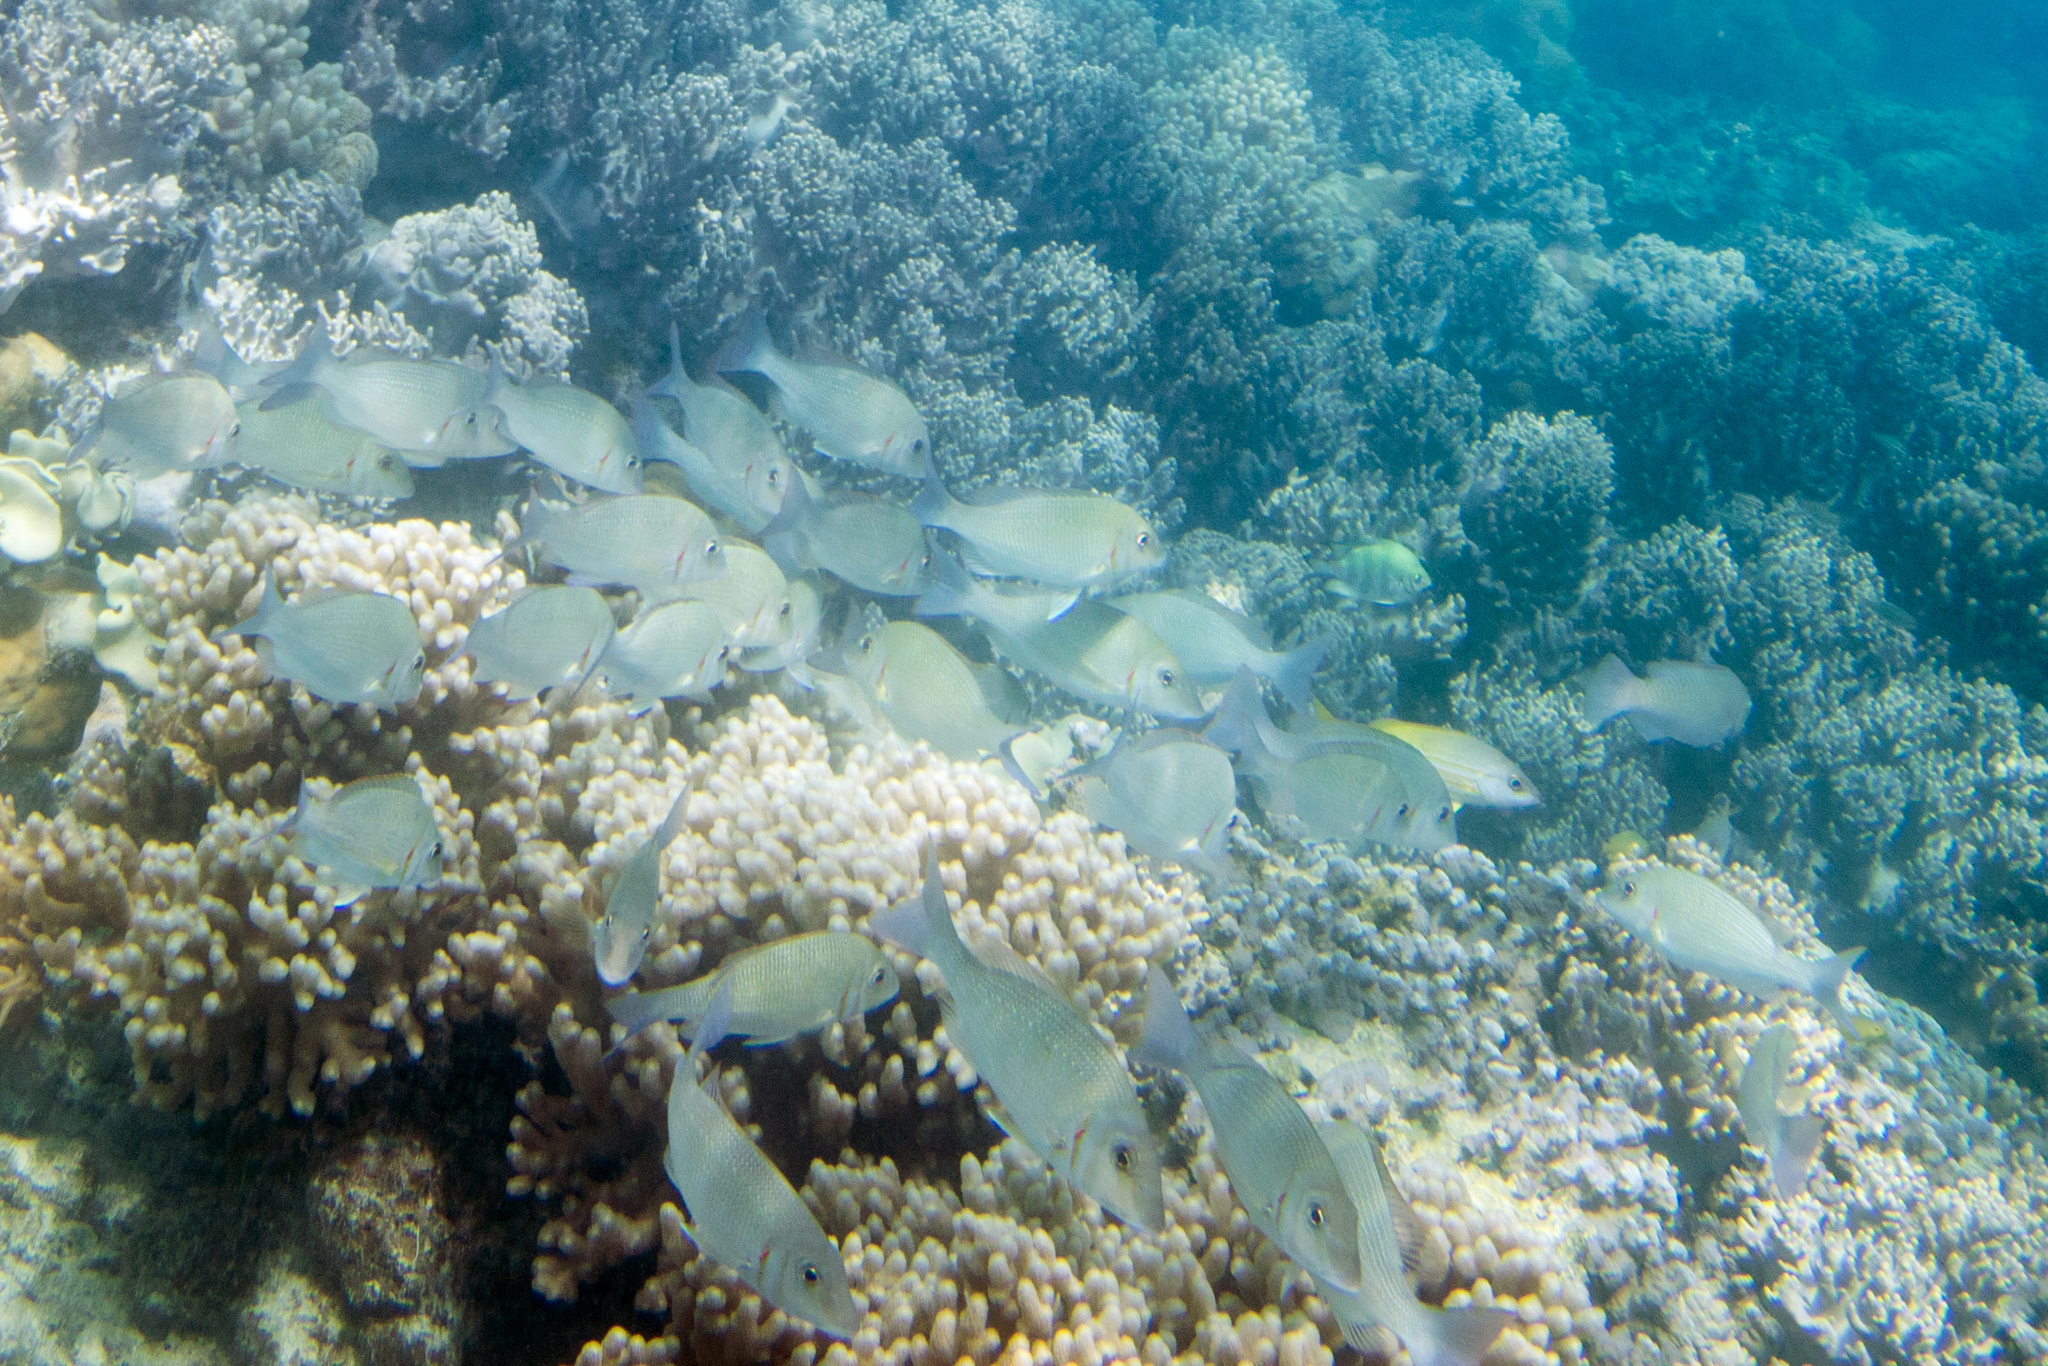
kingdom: Animalia
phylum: Chordata
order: Perciformes
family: Lethrinidae
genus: Lethrinus
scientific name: Lethrinus lentjan
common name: Redspot emperor
